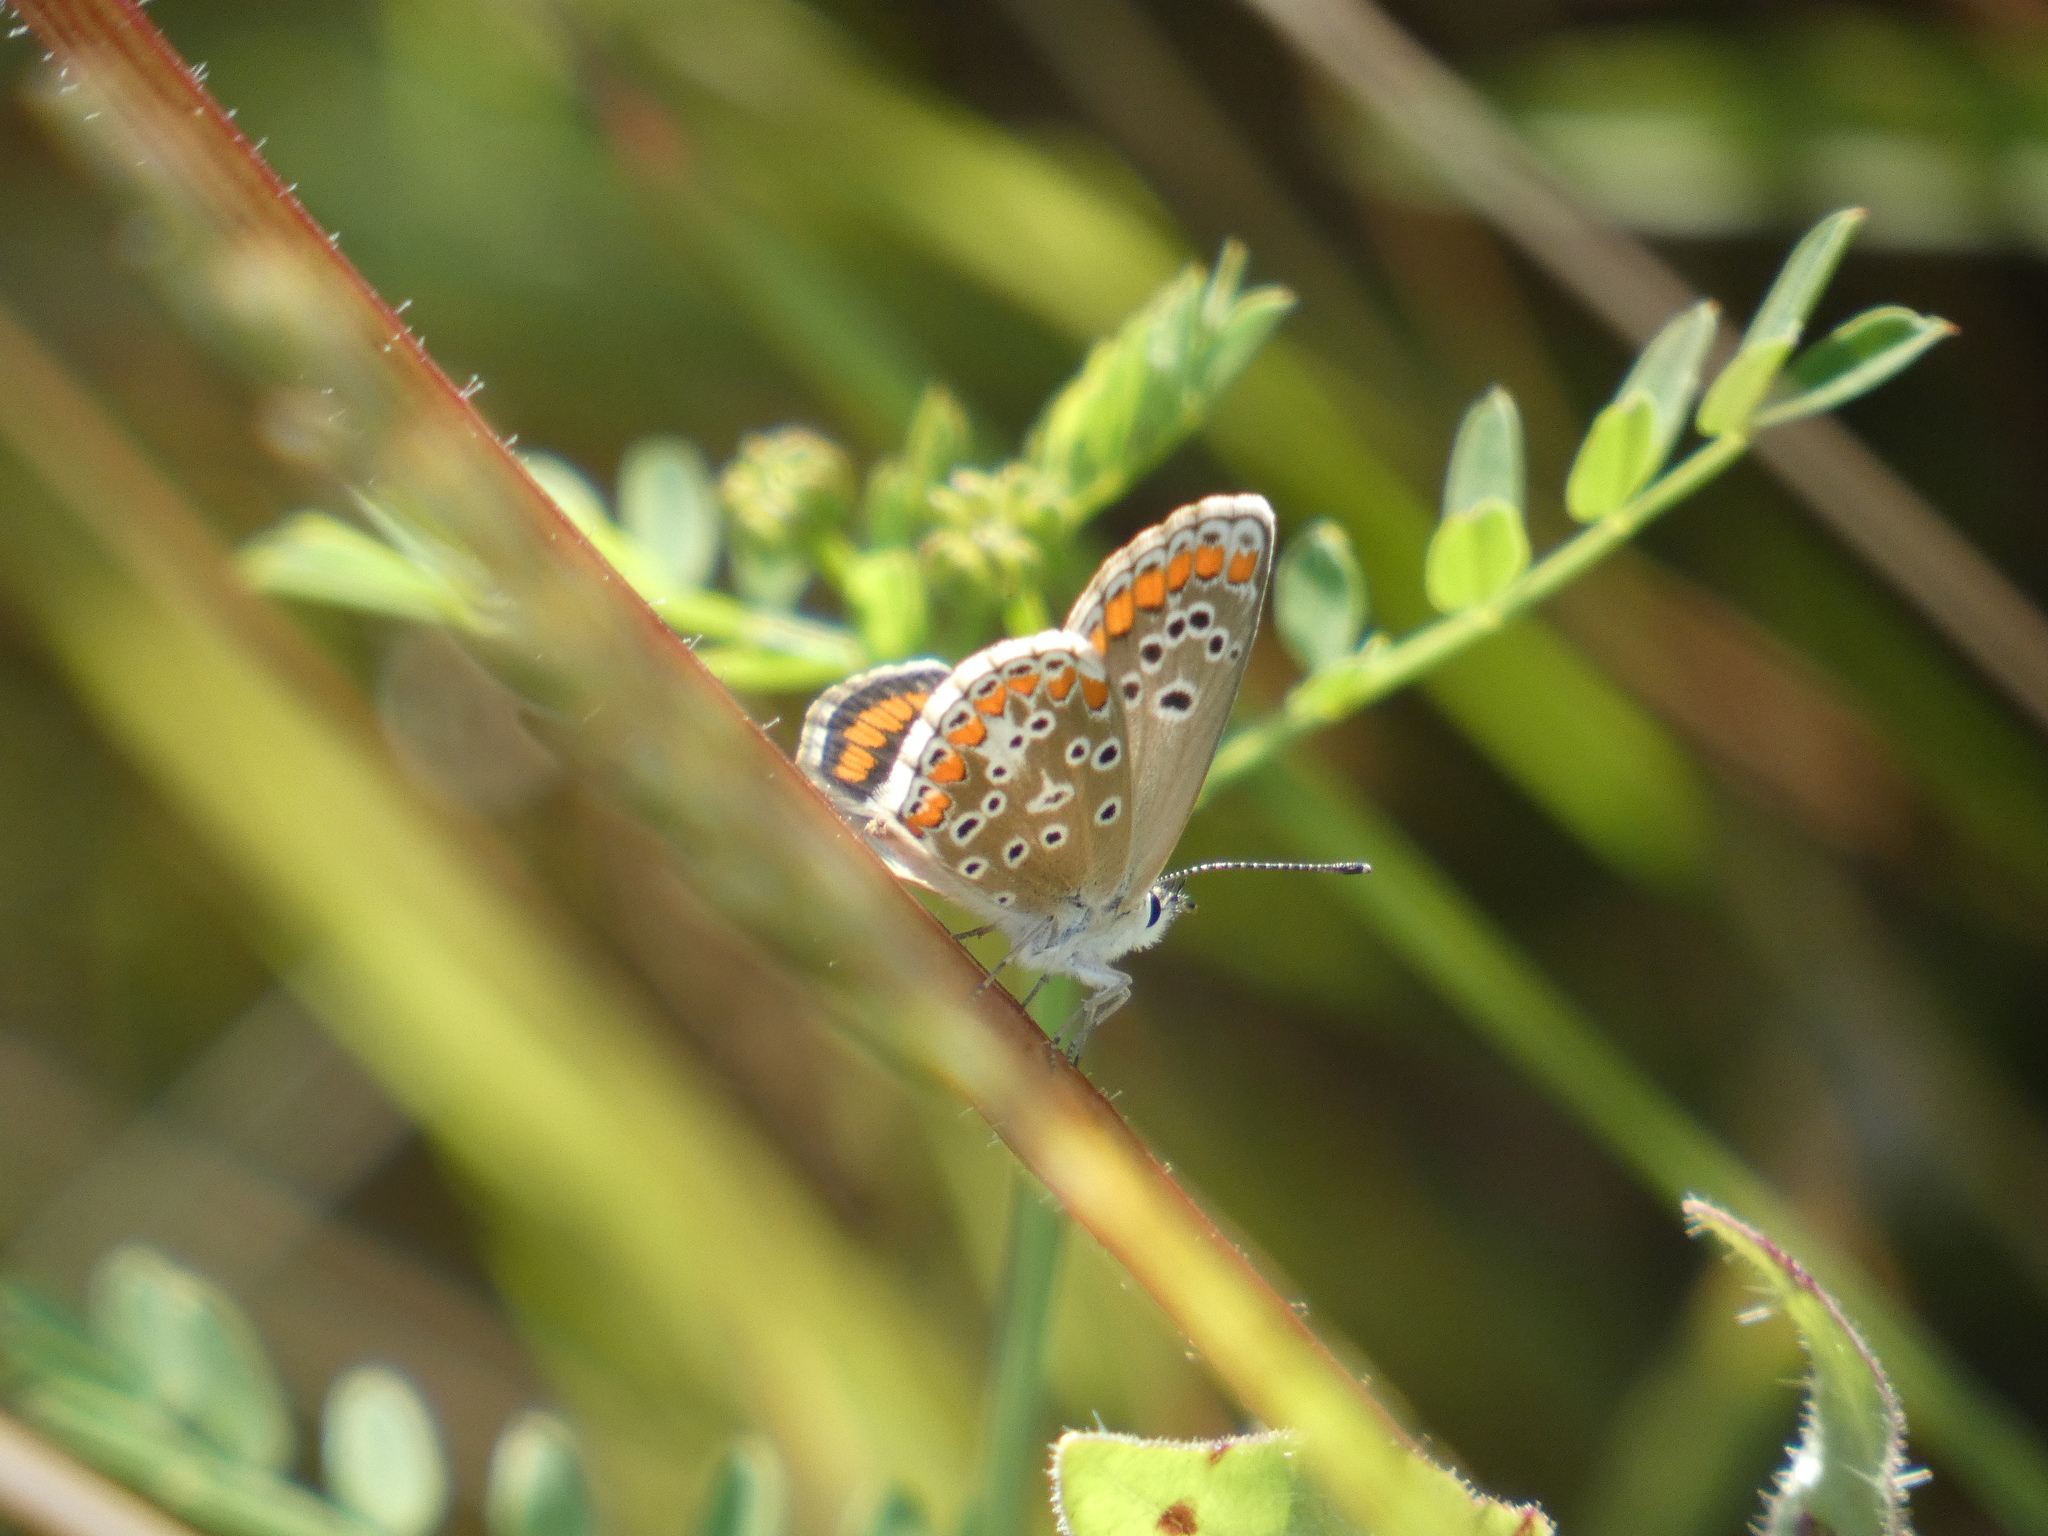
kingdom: Animalia
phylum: Arthropoda
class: Insecta
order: Lepidoptera
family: Lycaenidae
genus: Aricia
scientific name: Aricia agestis
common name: Brown argus
